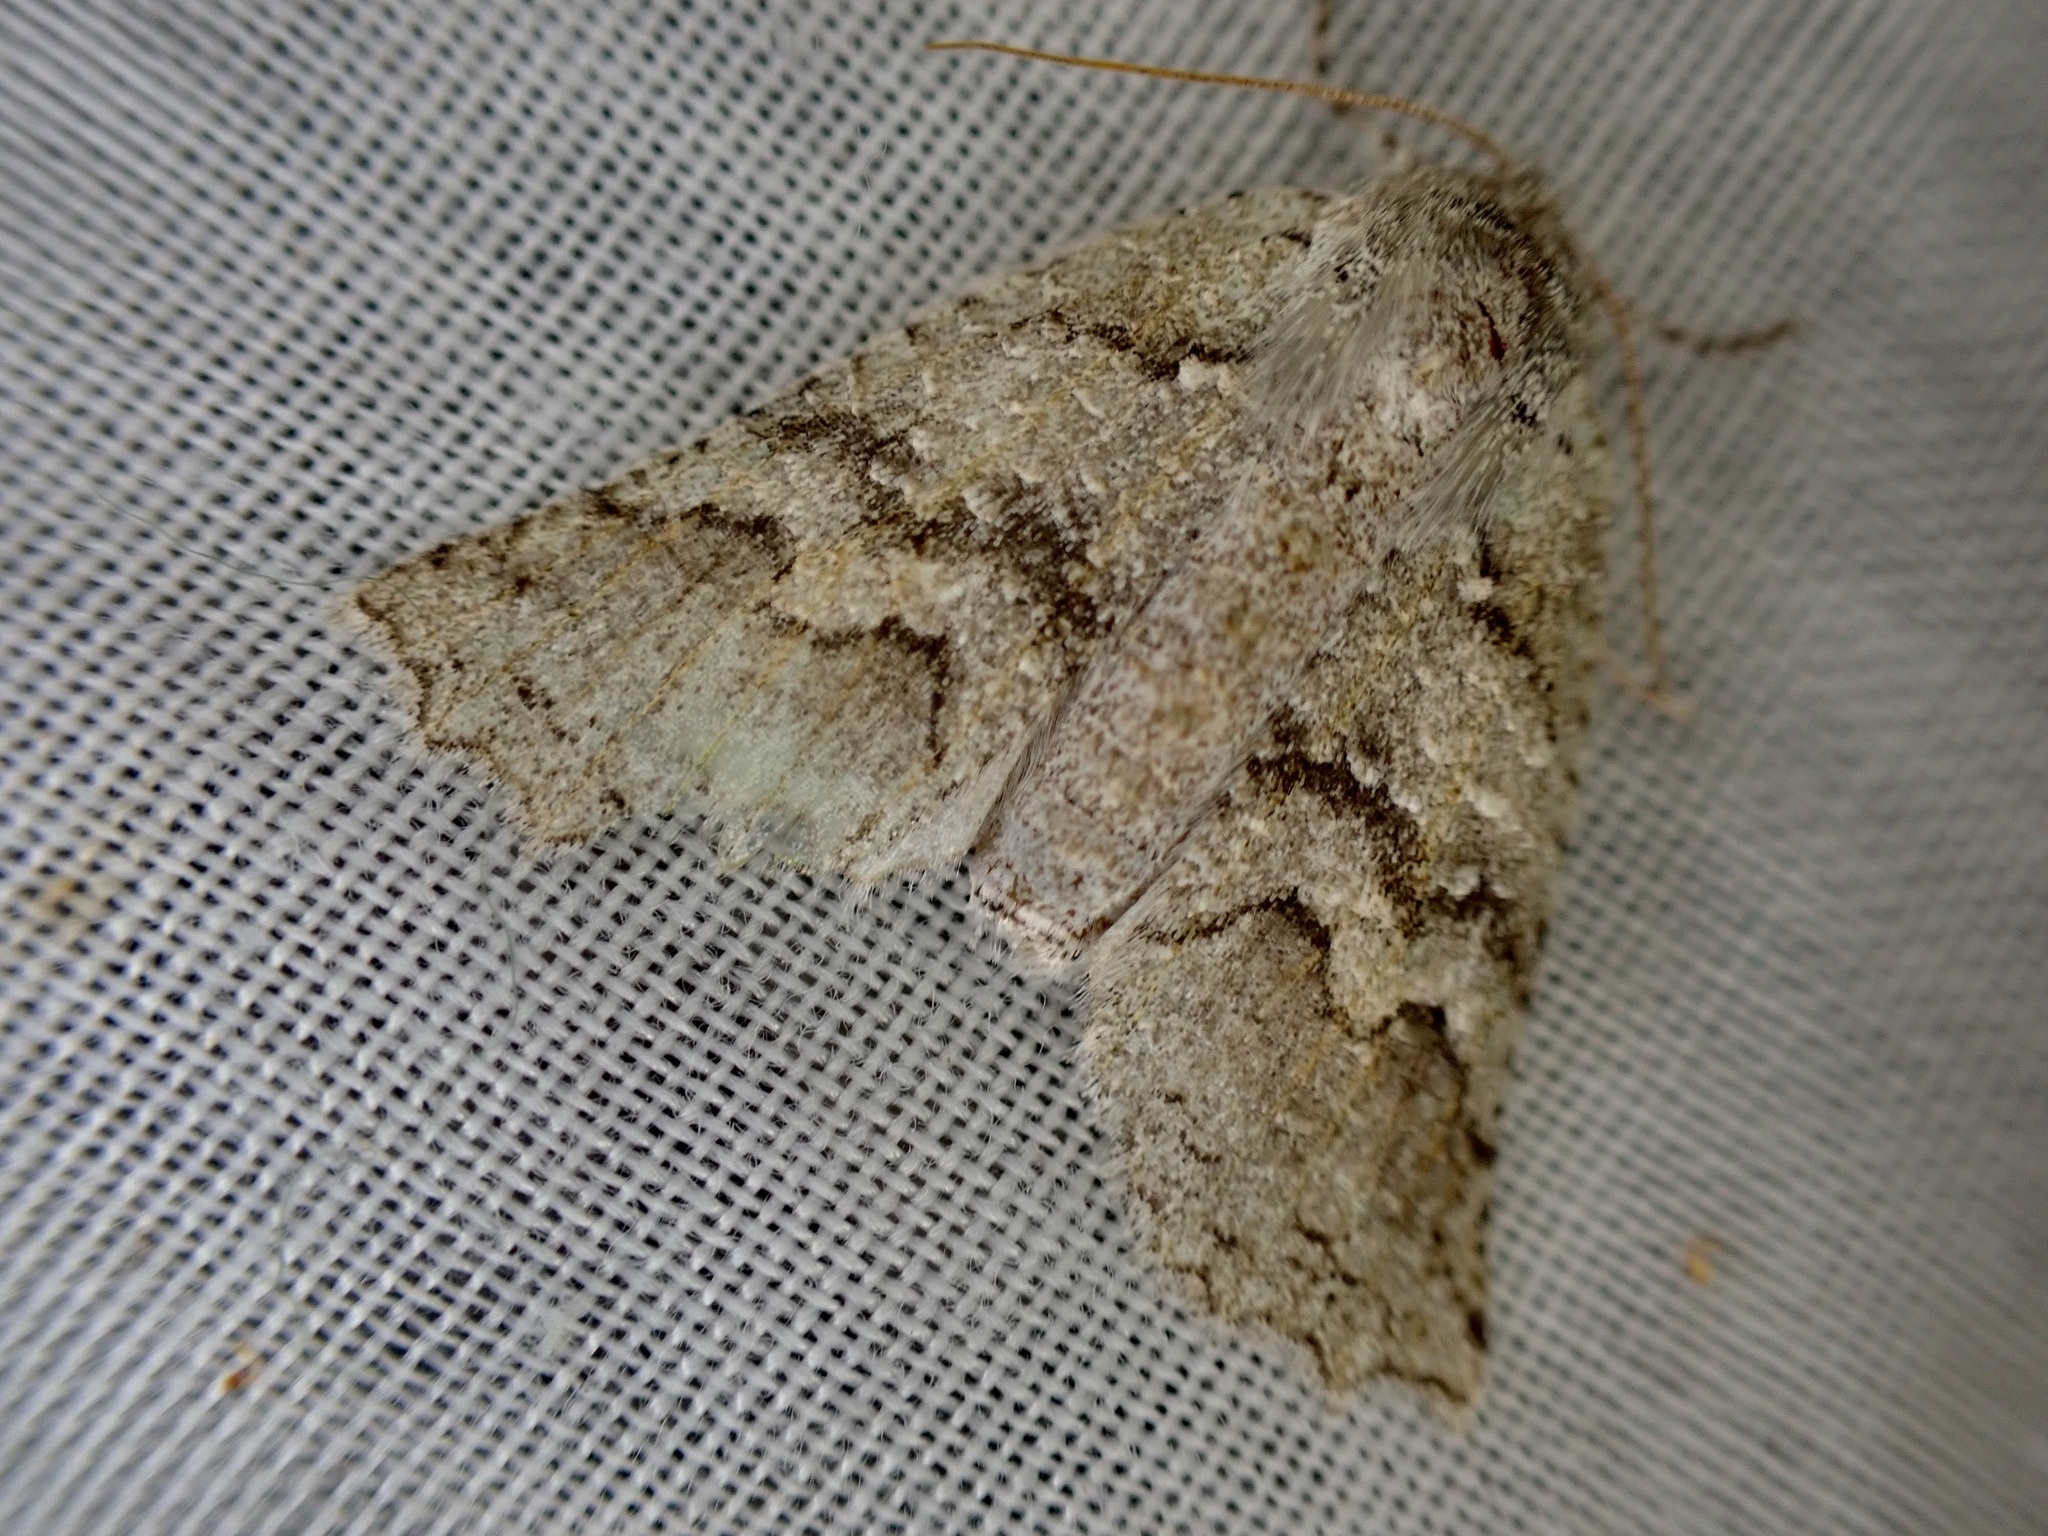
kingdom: Animalia
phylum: Arthropoda
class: Insecta
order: Lepidoptera
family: Geometridae
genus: Declana
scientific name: Declana niveata
